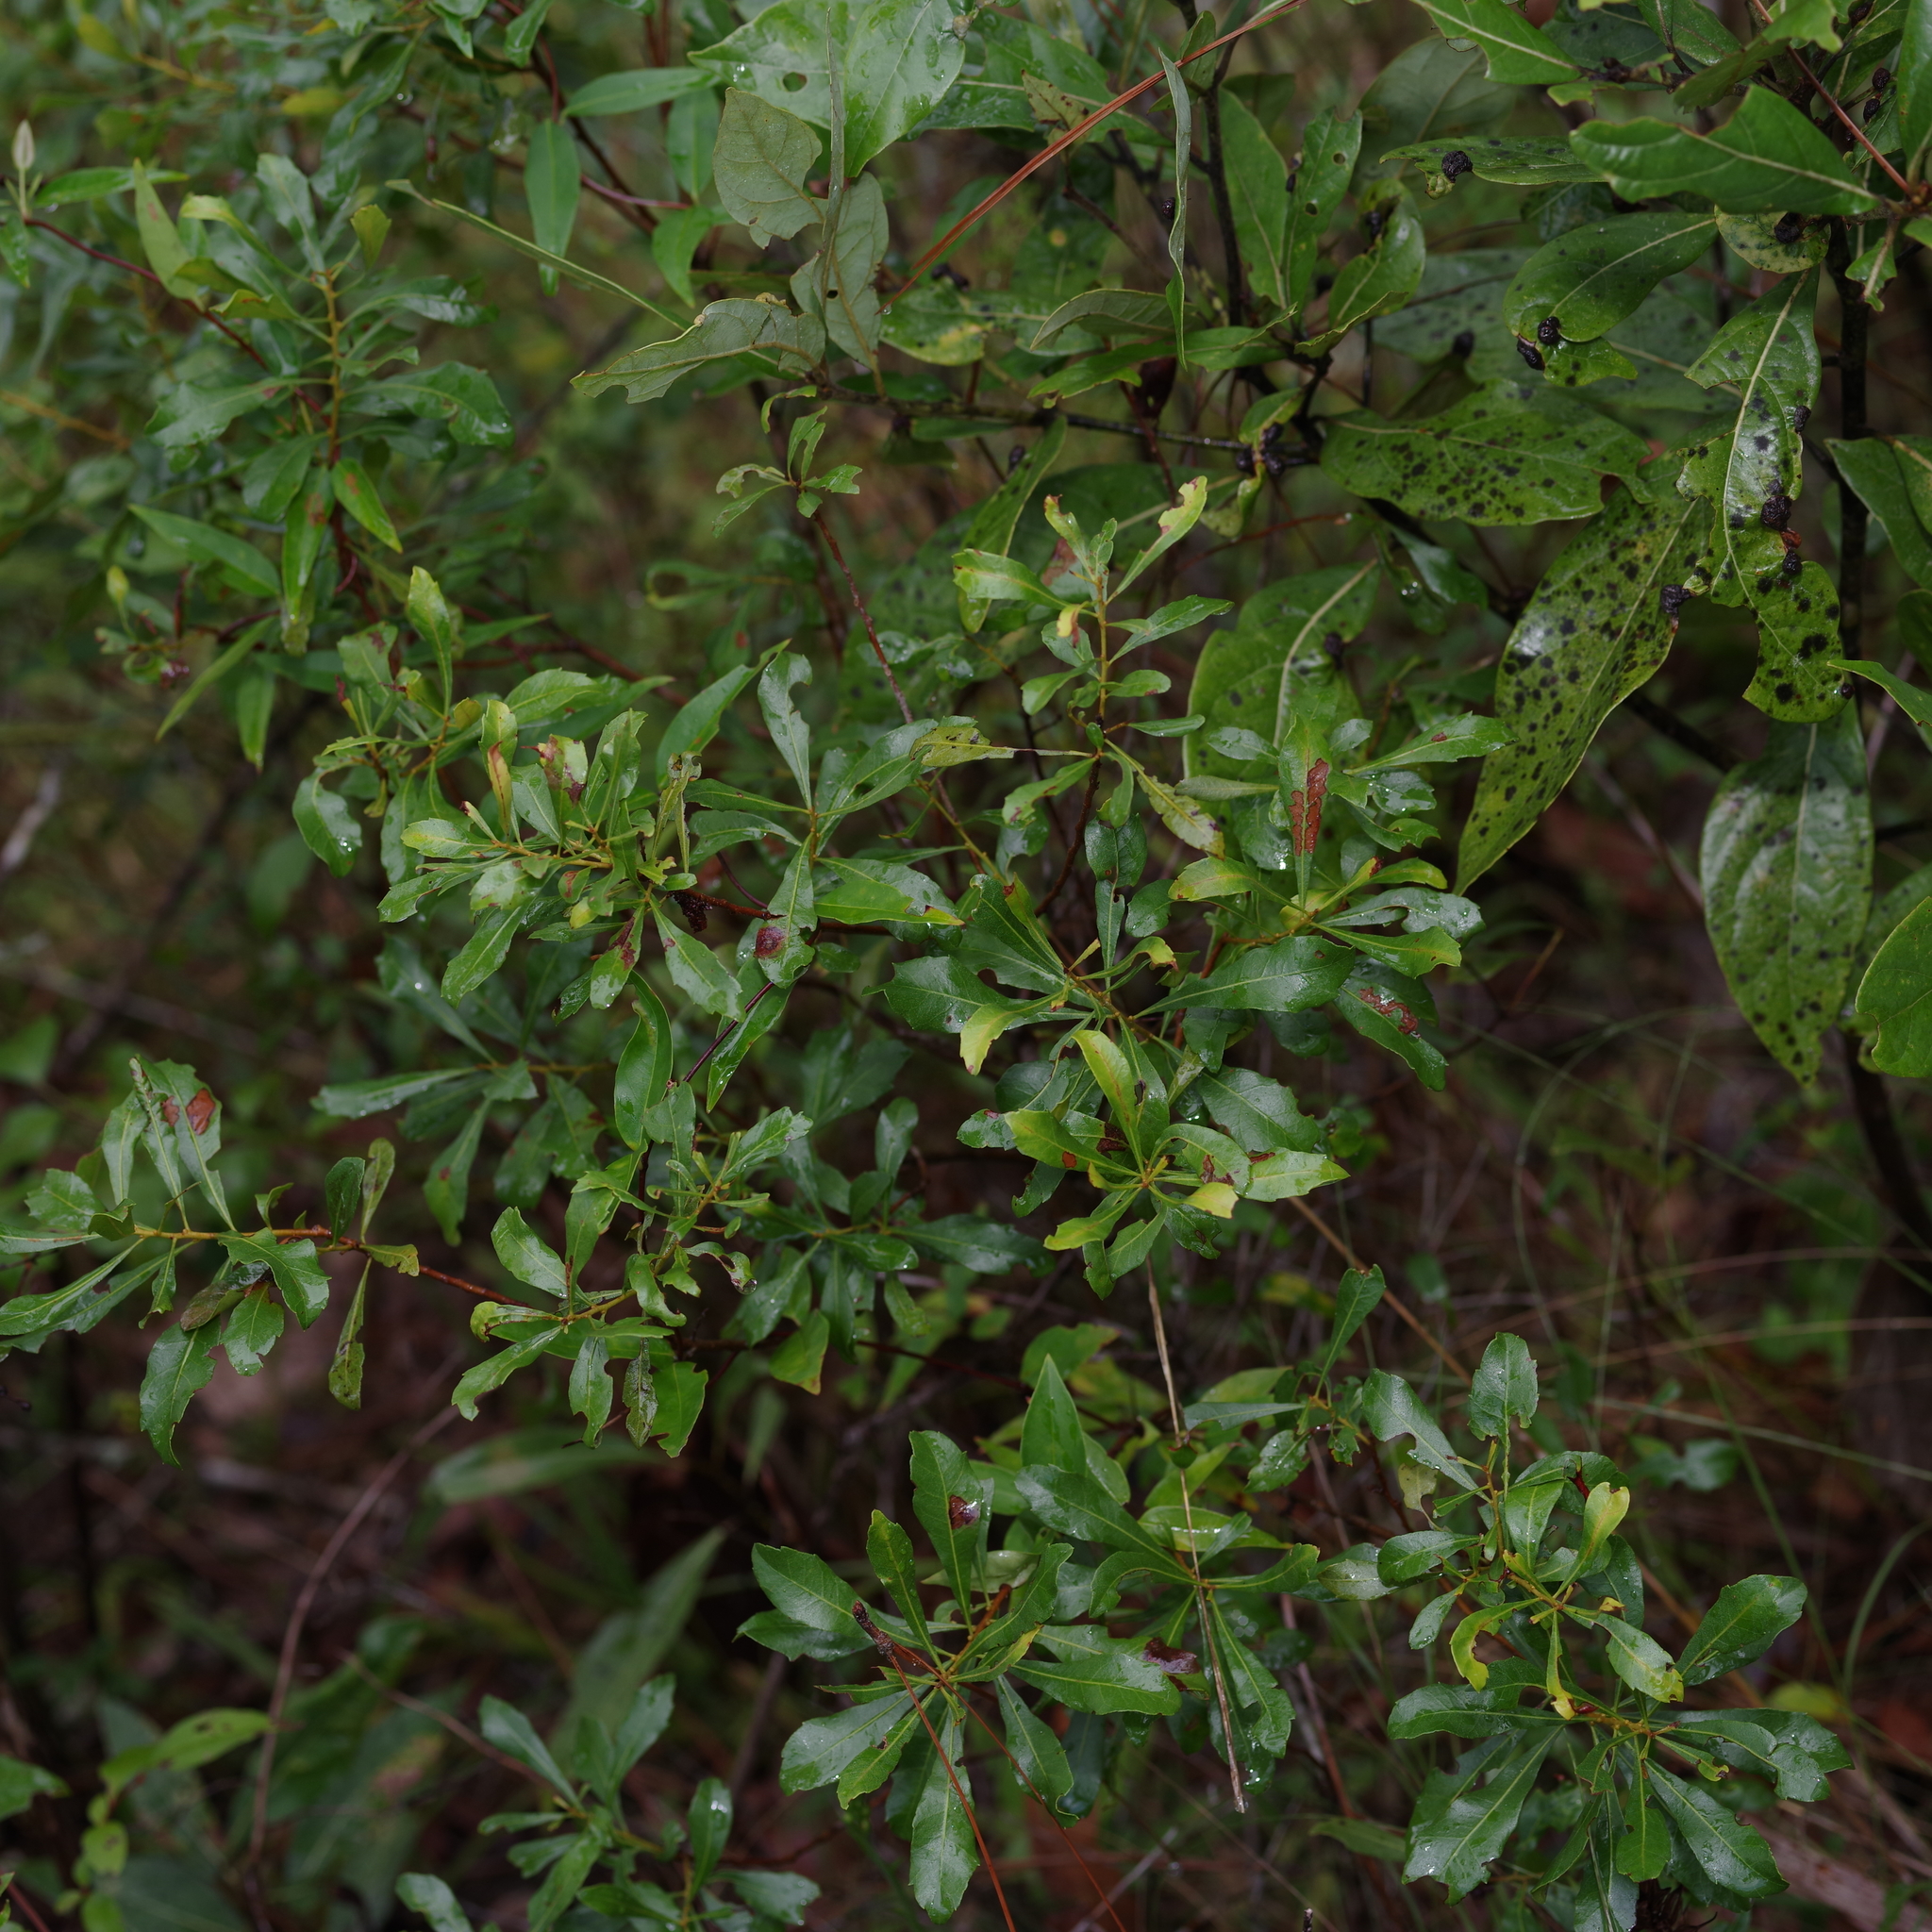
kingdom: Plantae
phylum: Tracheophyta
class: Magnoliopsida
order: Fagales
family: Myricaceae
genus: Morella
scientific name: Morella cerifera
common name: Wax myrtle
